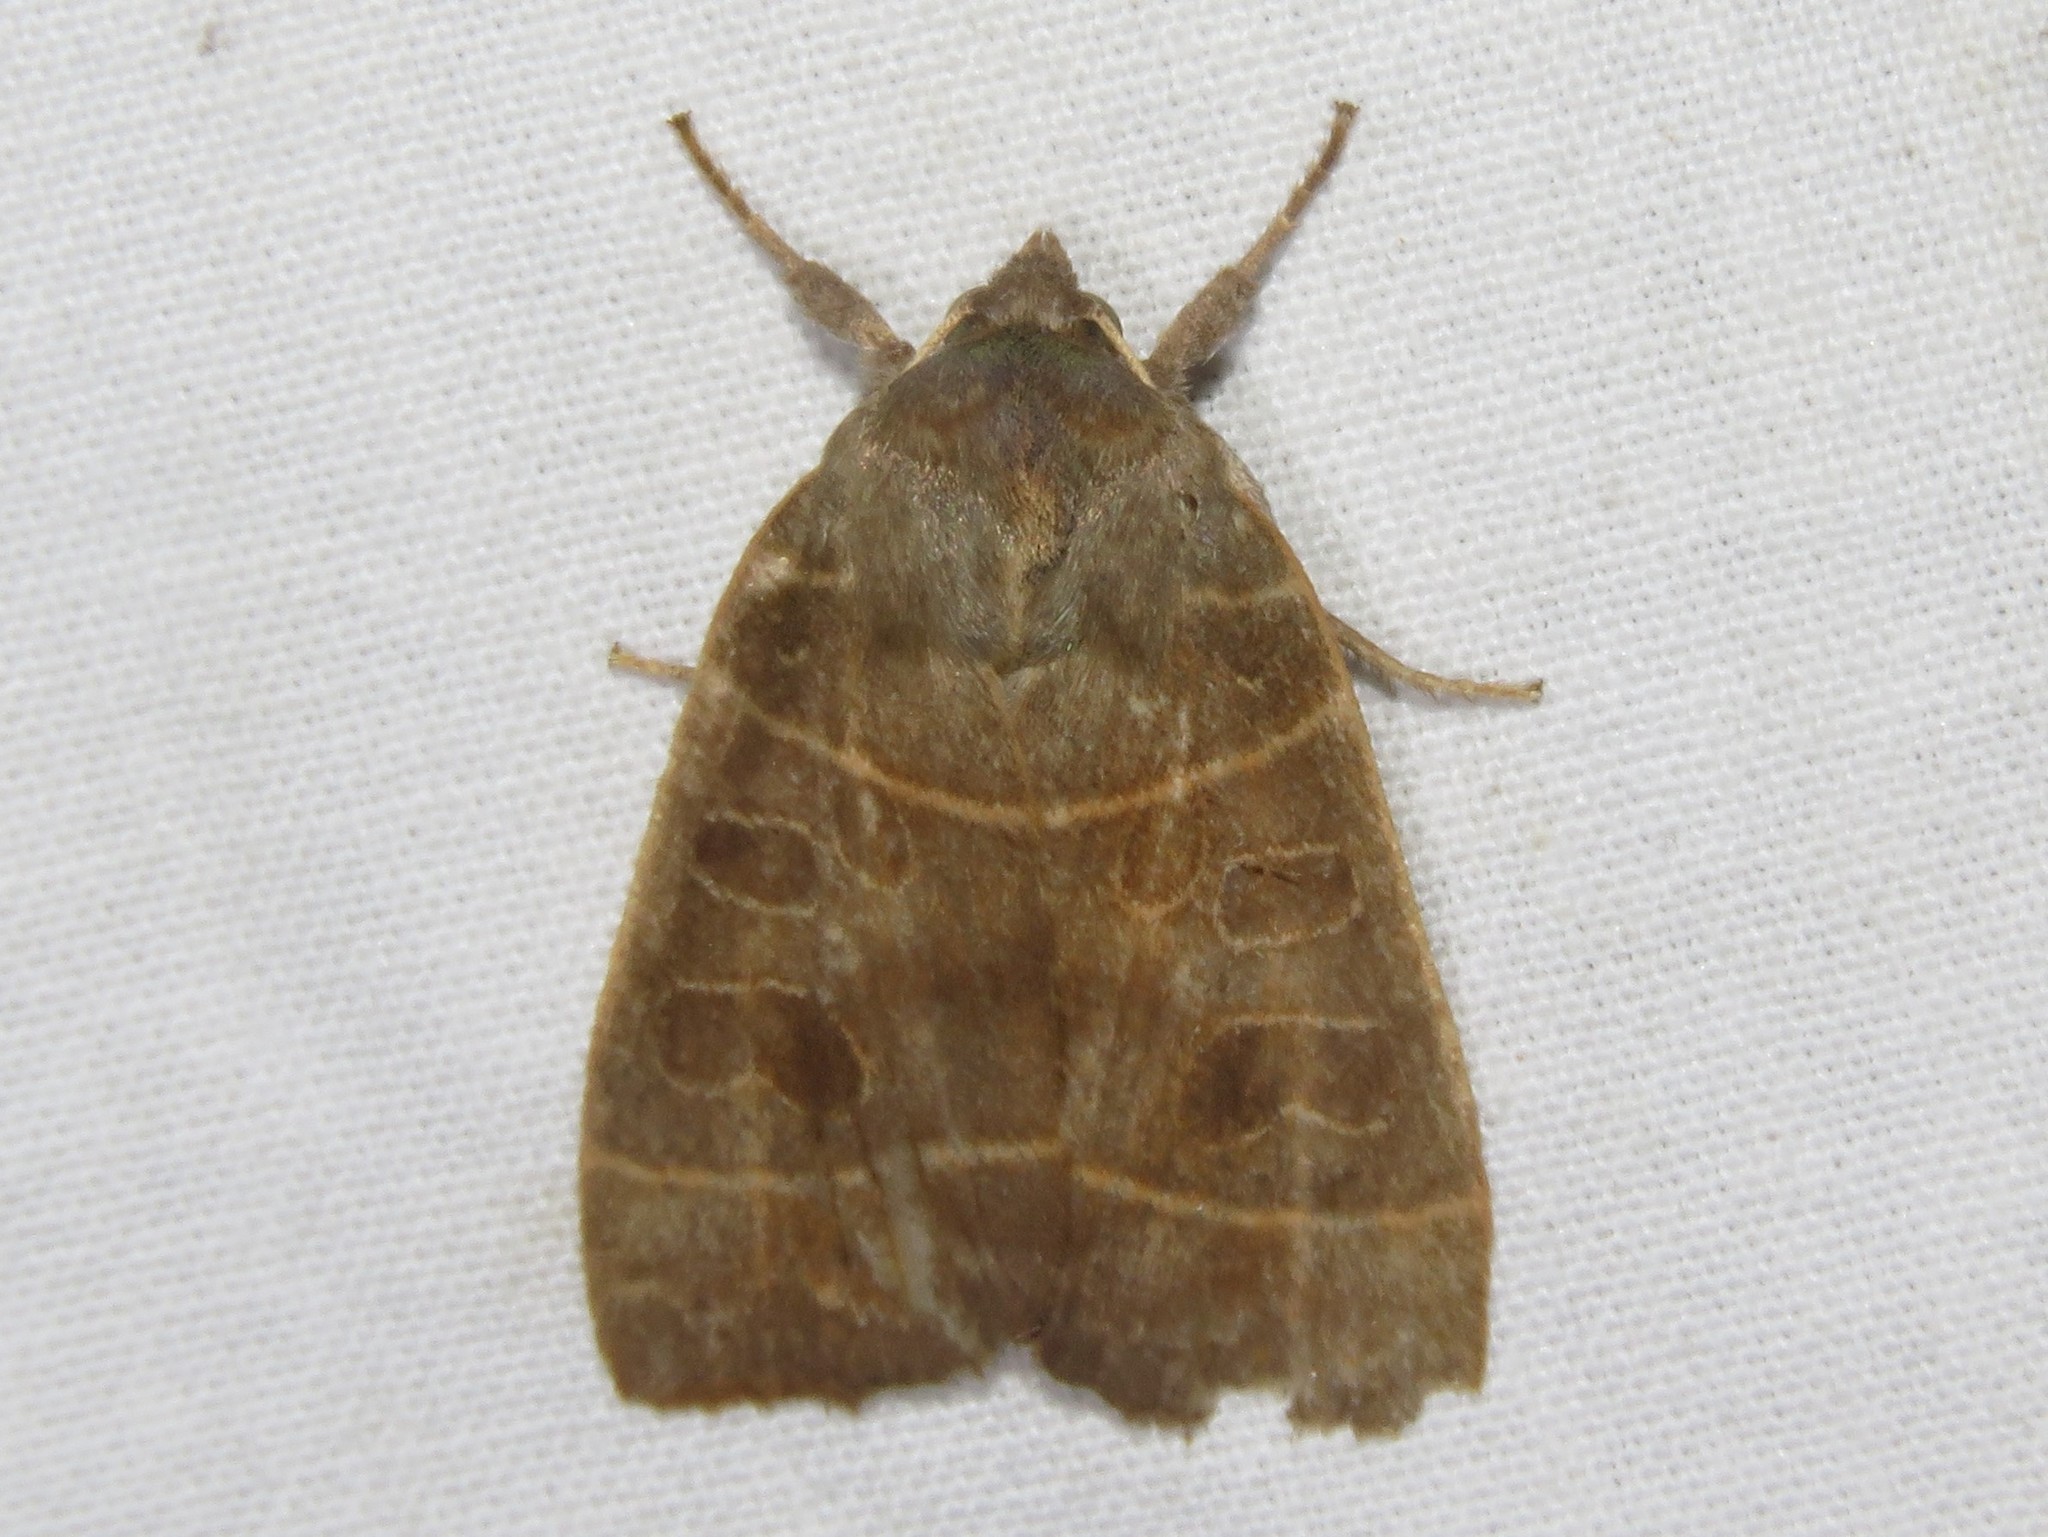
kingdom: Animalia
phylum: Arthropoda
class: Insecta
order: Lepidoptera
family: Noctuidae
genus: Ipimorpha
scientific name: Ipimorpha pleonectusa
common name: Even-lined sallow
